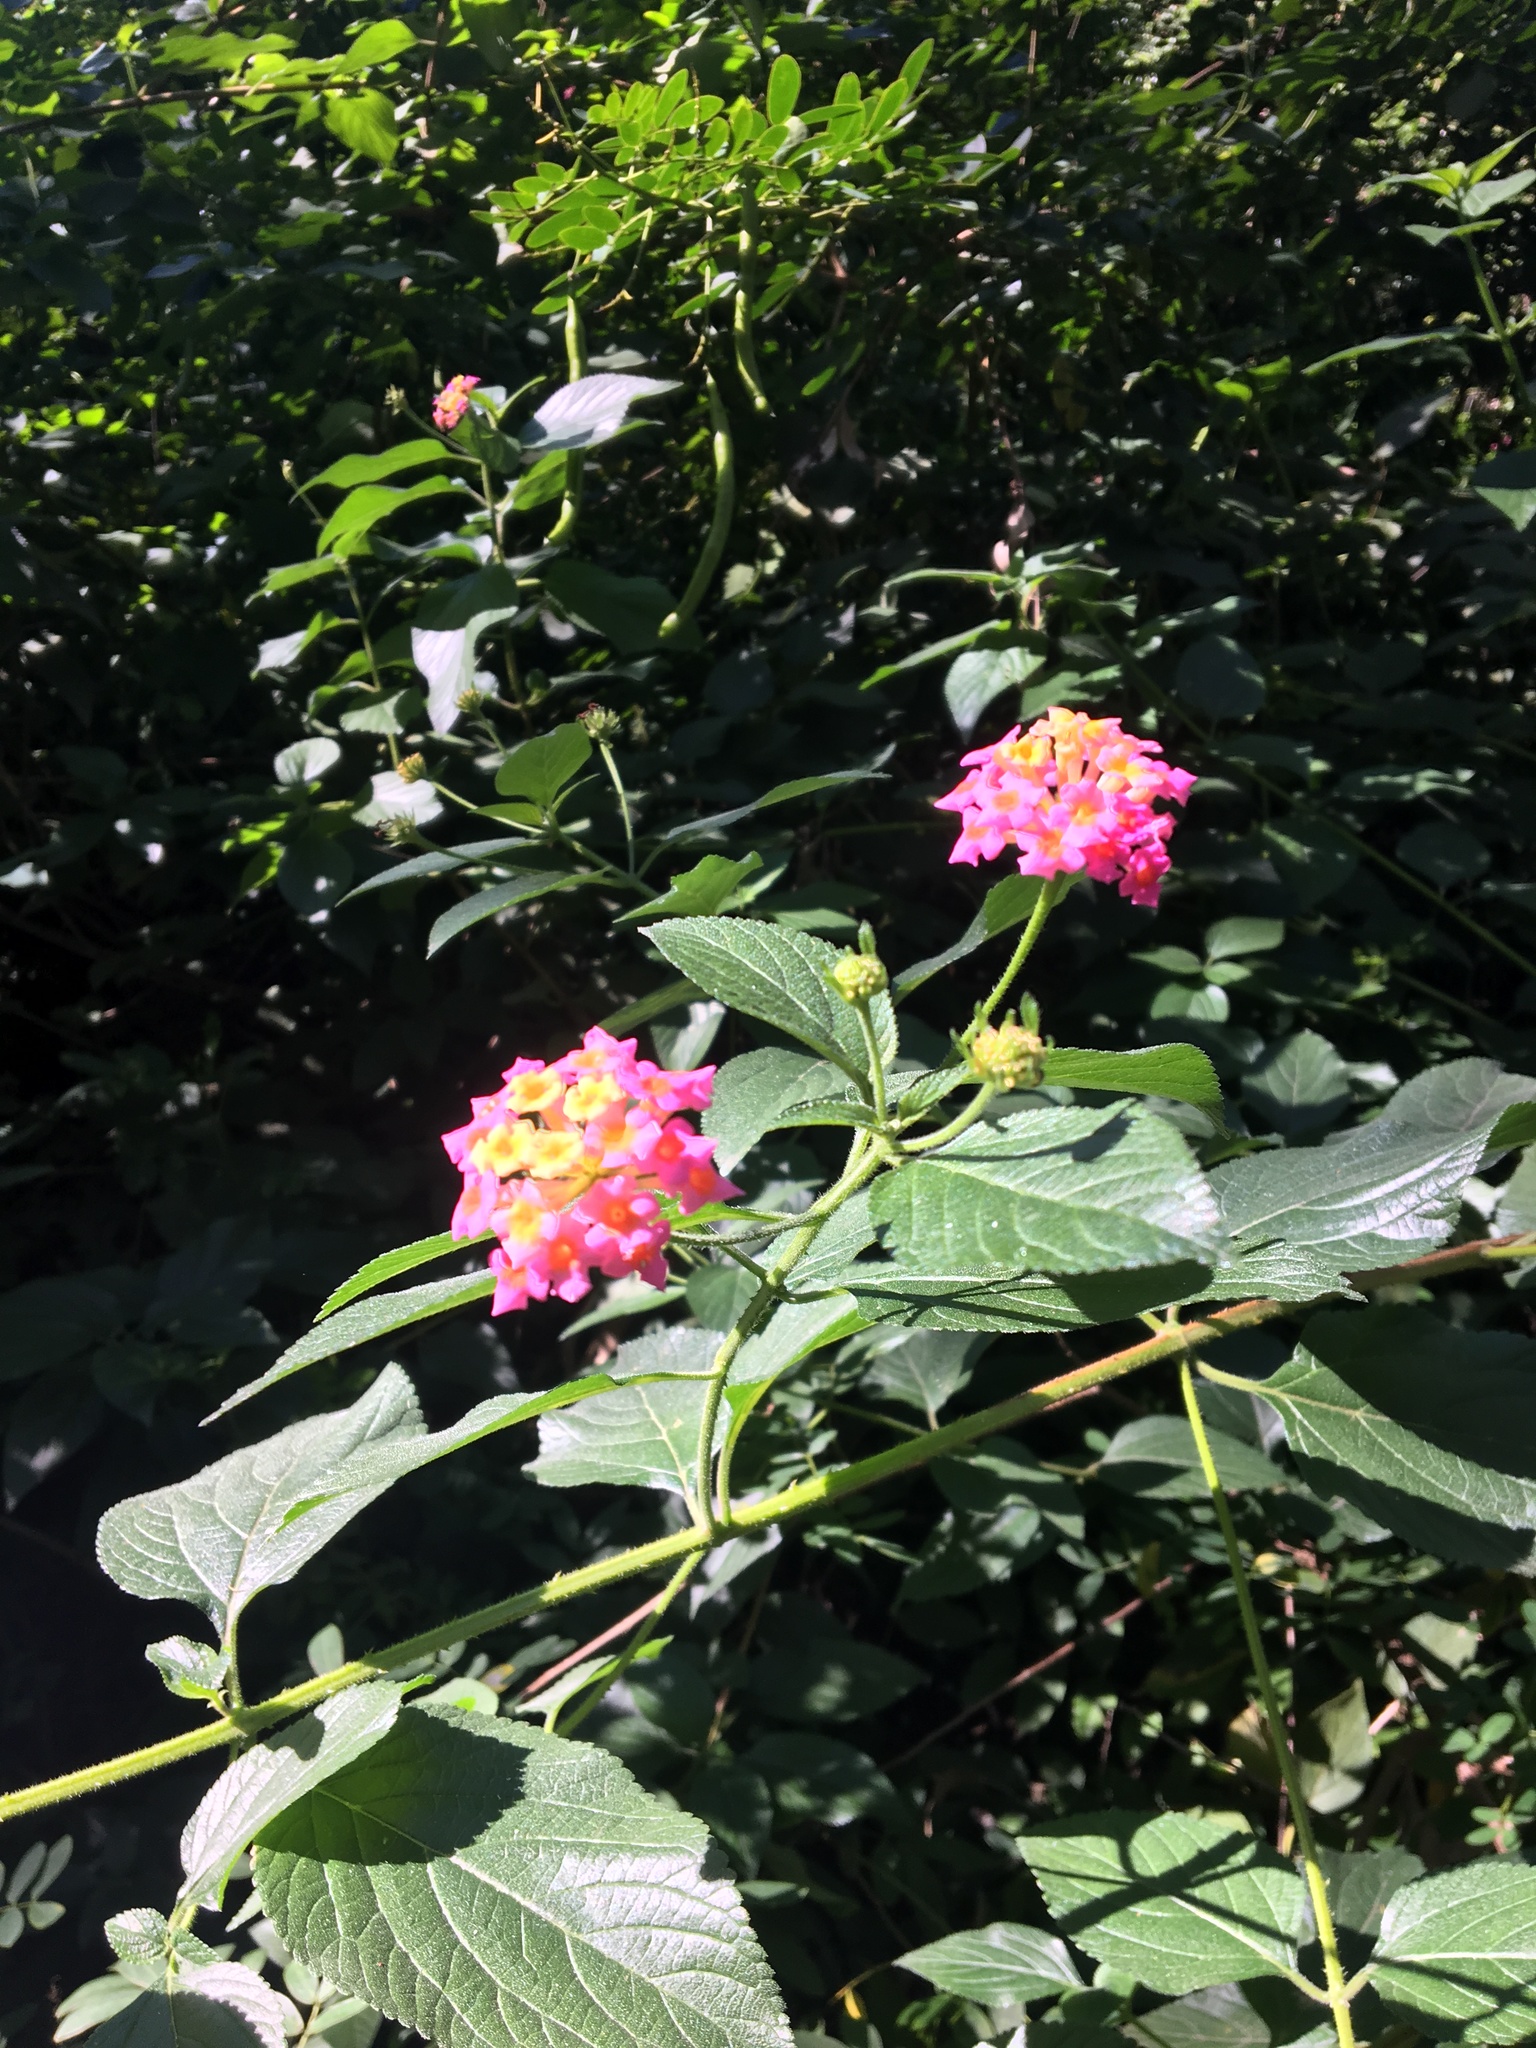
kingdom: Plantae
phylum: Tracheophyta
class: Magnoliopsida
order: Lamiales
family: Verbenaceae
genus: Lantana
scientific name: Lantana camara
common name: Lantana
